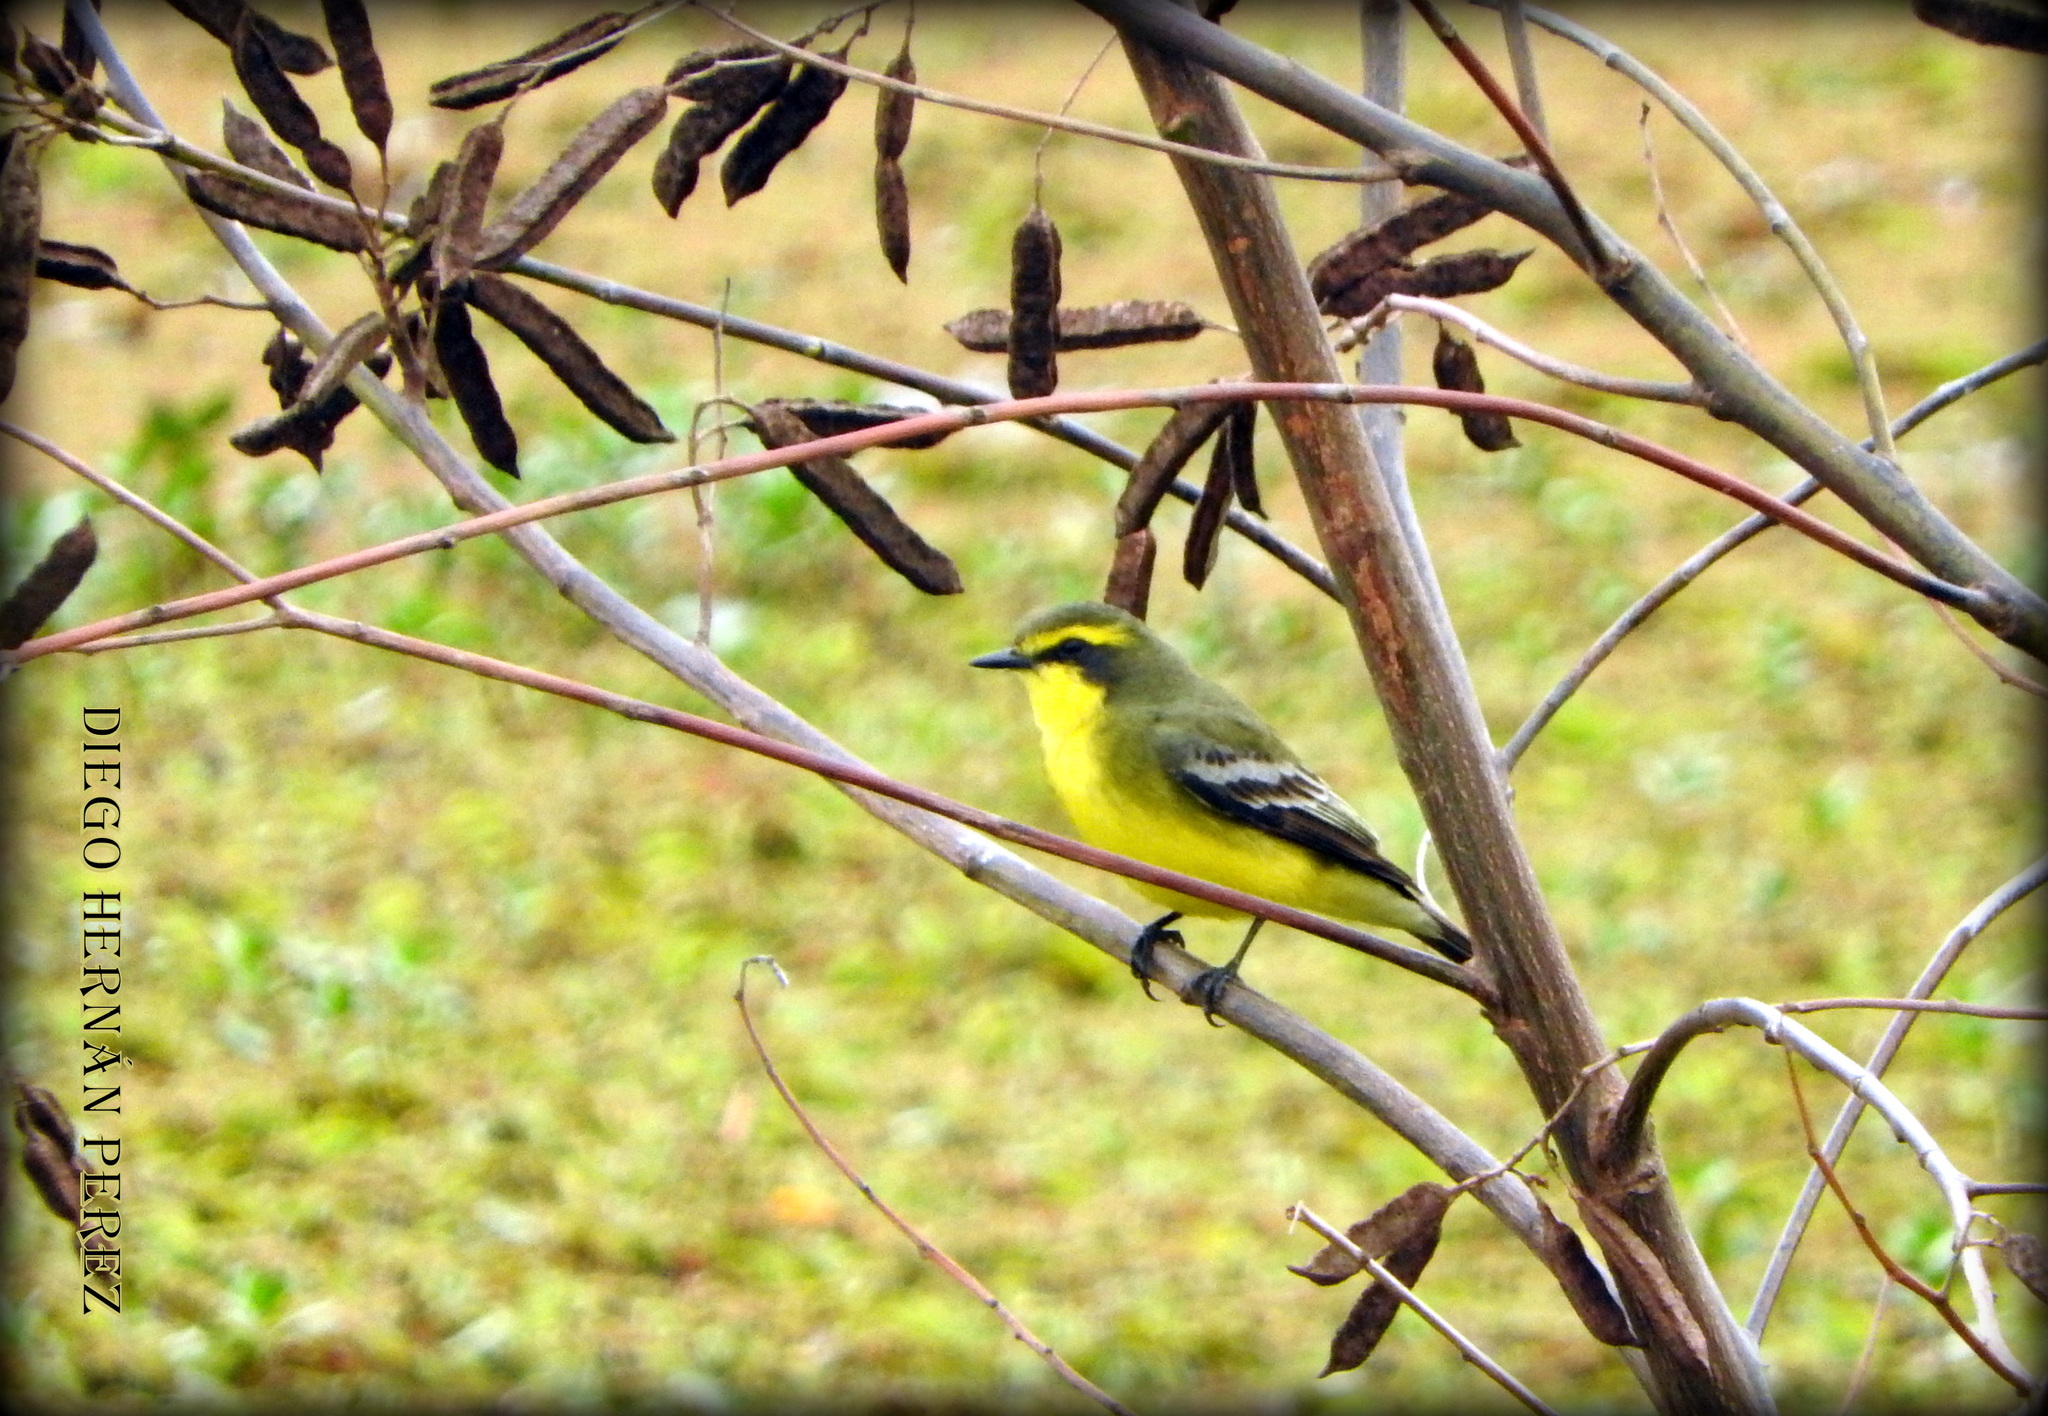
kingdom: Animalia
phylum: Chordata
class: Aves
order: Passeriformes
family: Tyrannidae
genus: Satrapa
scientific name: Satrapa icterophrys
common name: Yellow-browed tyrant
